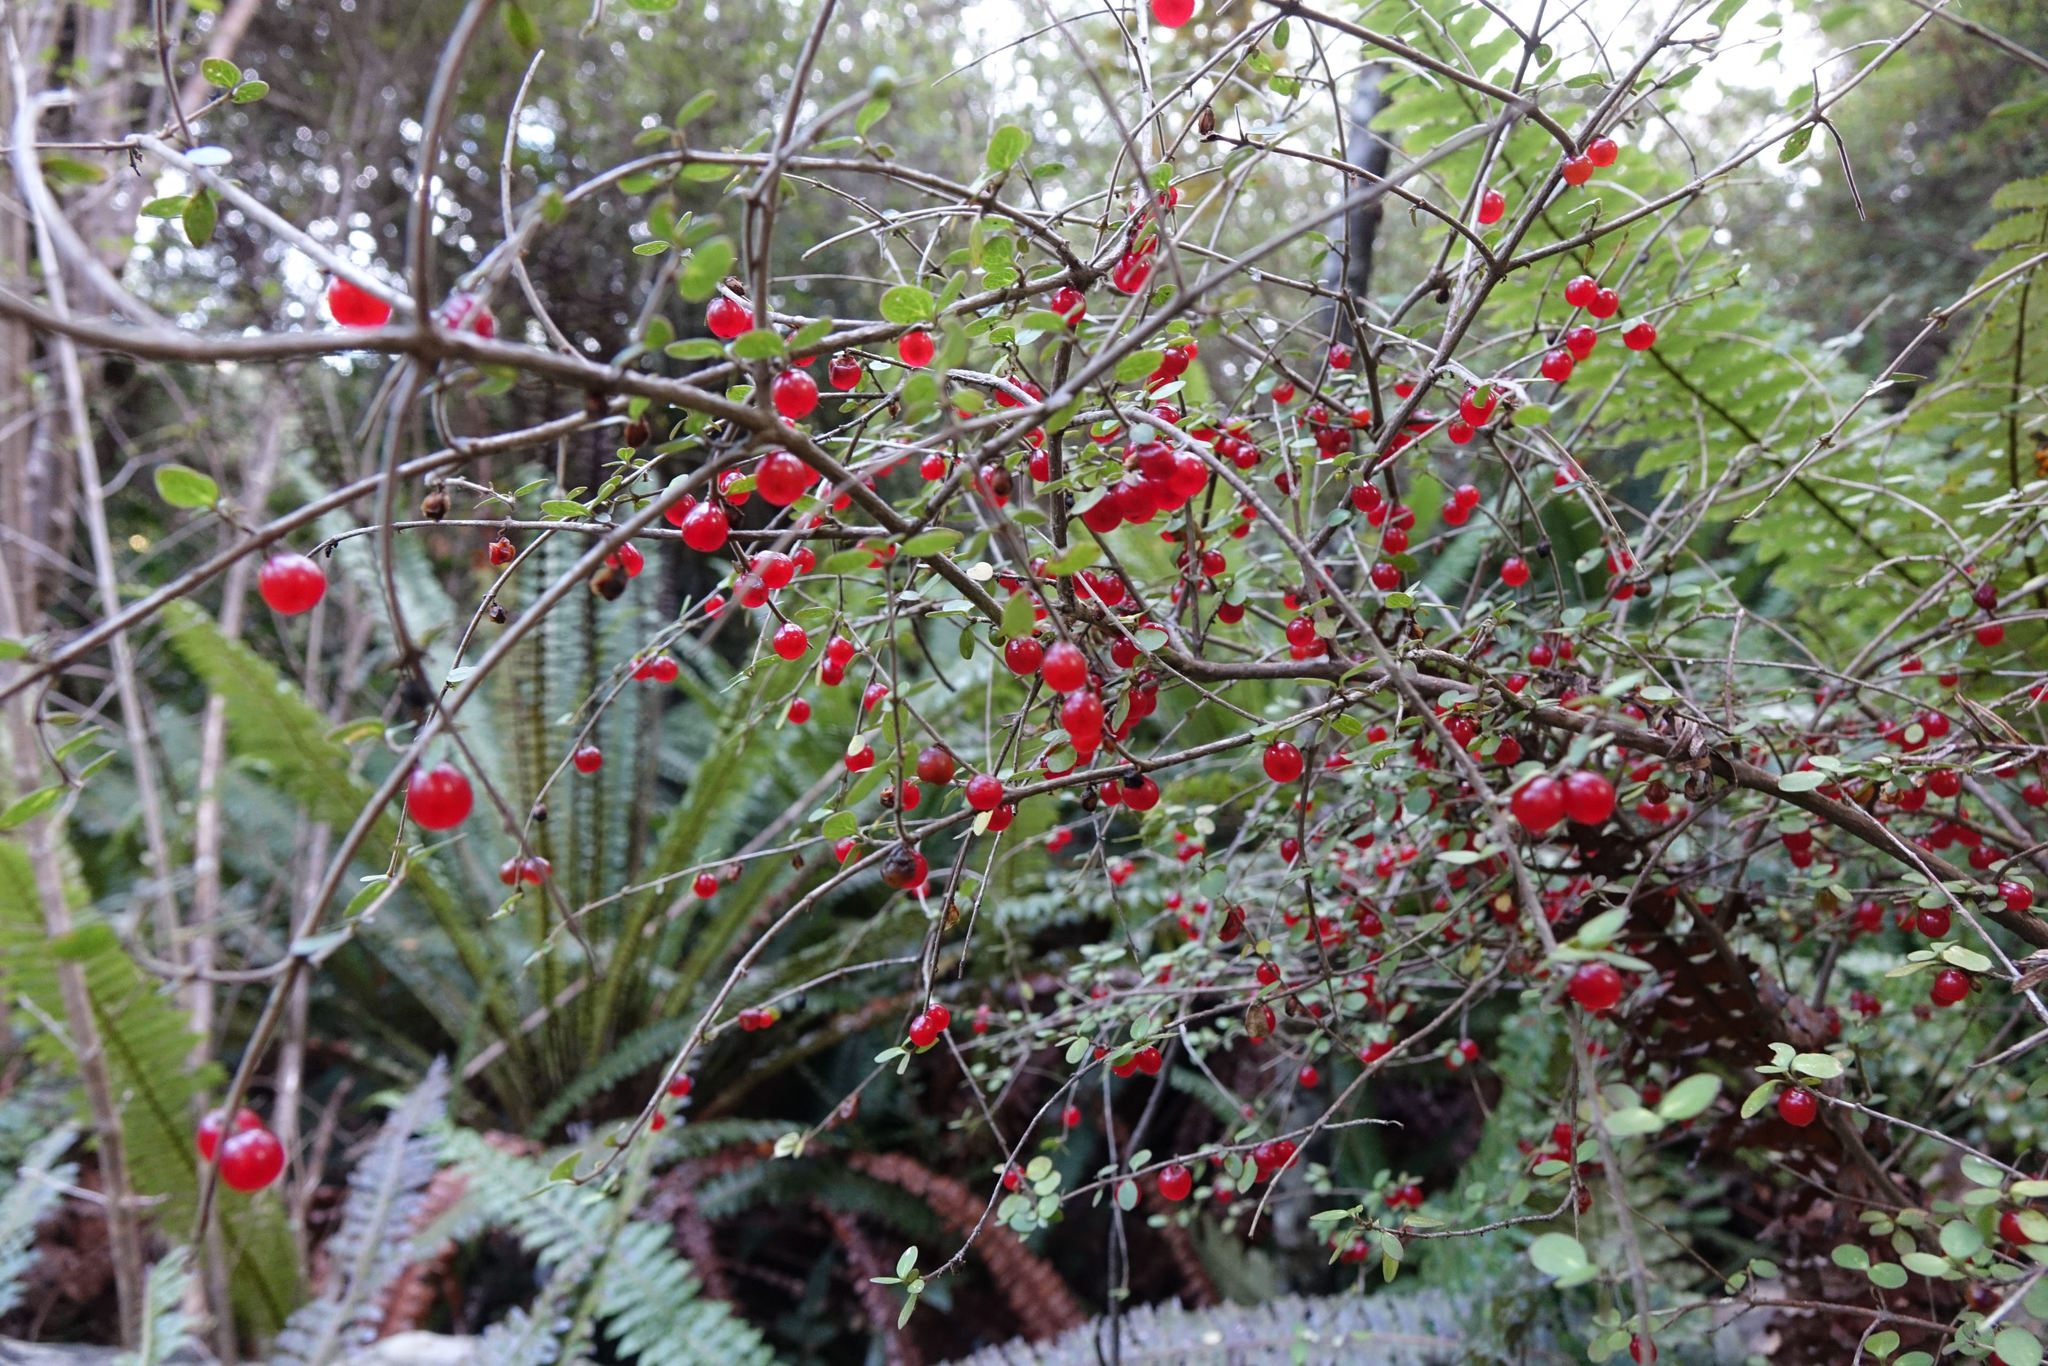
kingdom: Plantae
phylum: Tracheophyta
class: Magnoliopsida
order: Gentianales
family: Rubiaceae
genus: Coprosma
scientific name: Coprosma rhamnoides
